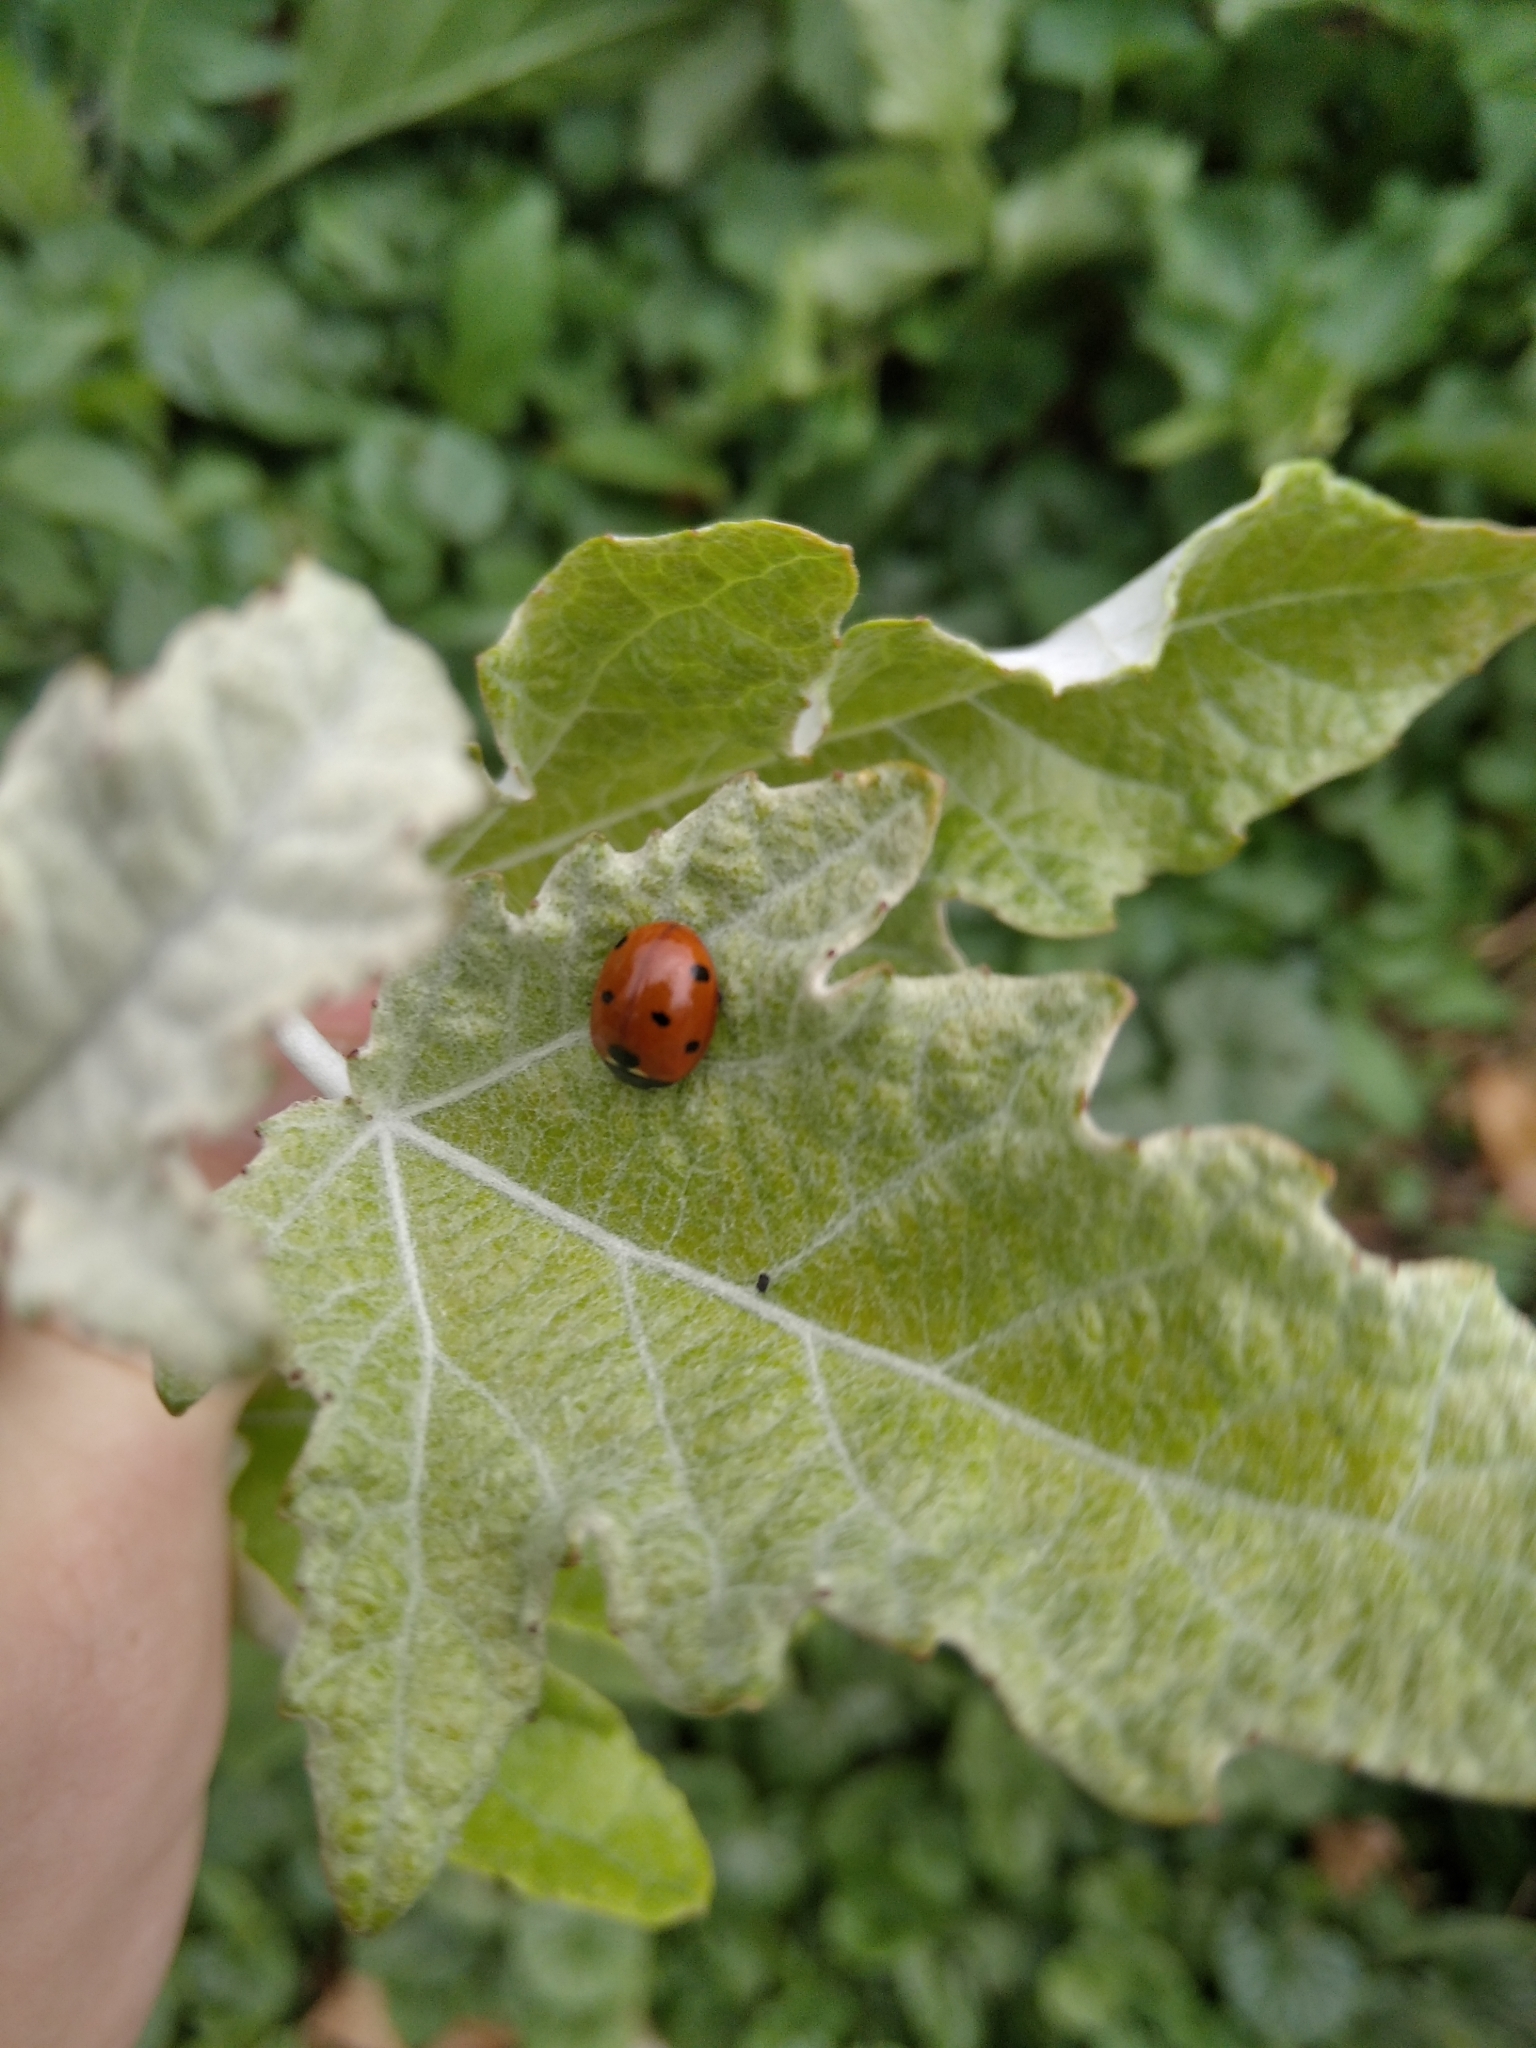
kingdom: Animalia
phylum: Arthropoda
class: Insecta
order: Coleoptera
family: Coccinellidae
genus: Coccinella
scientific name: Coccinella septempunctata
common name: Sevenspotted lady beetle
